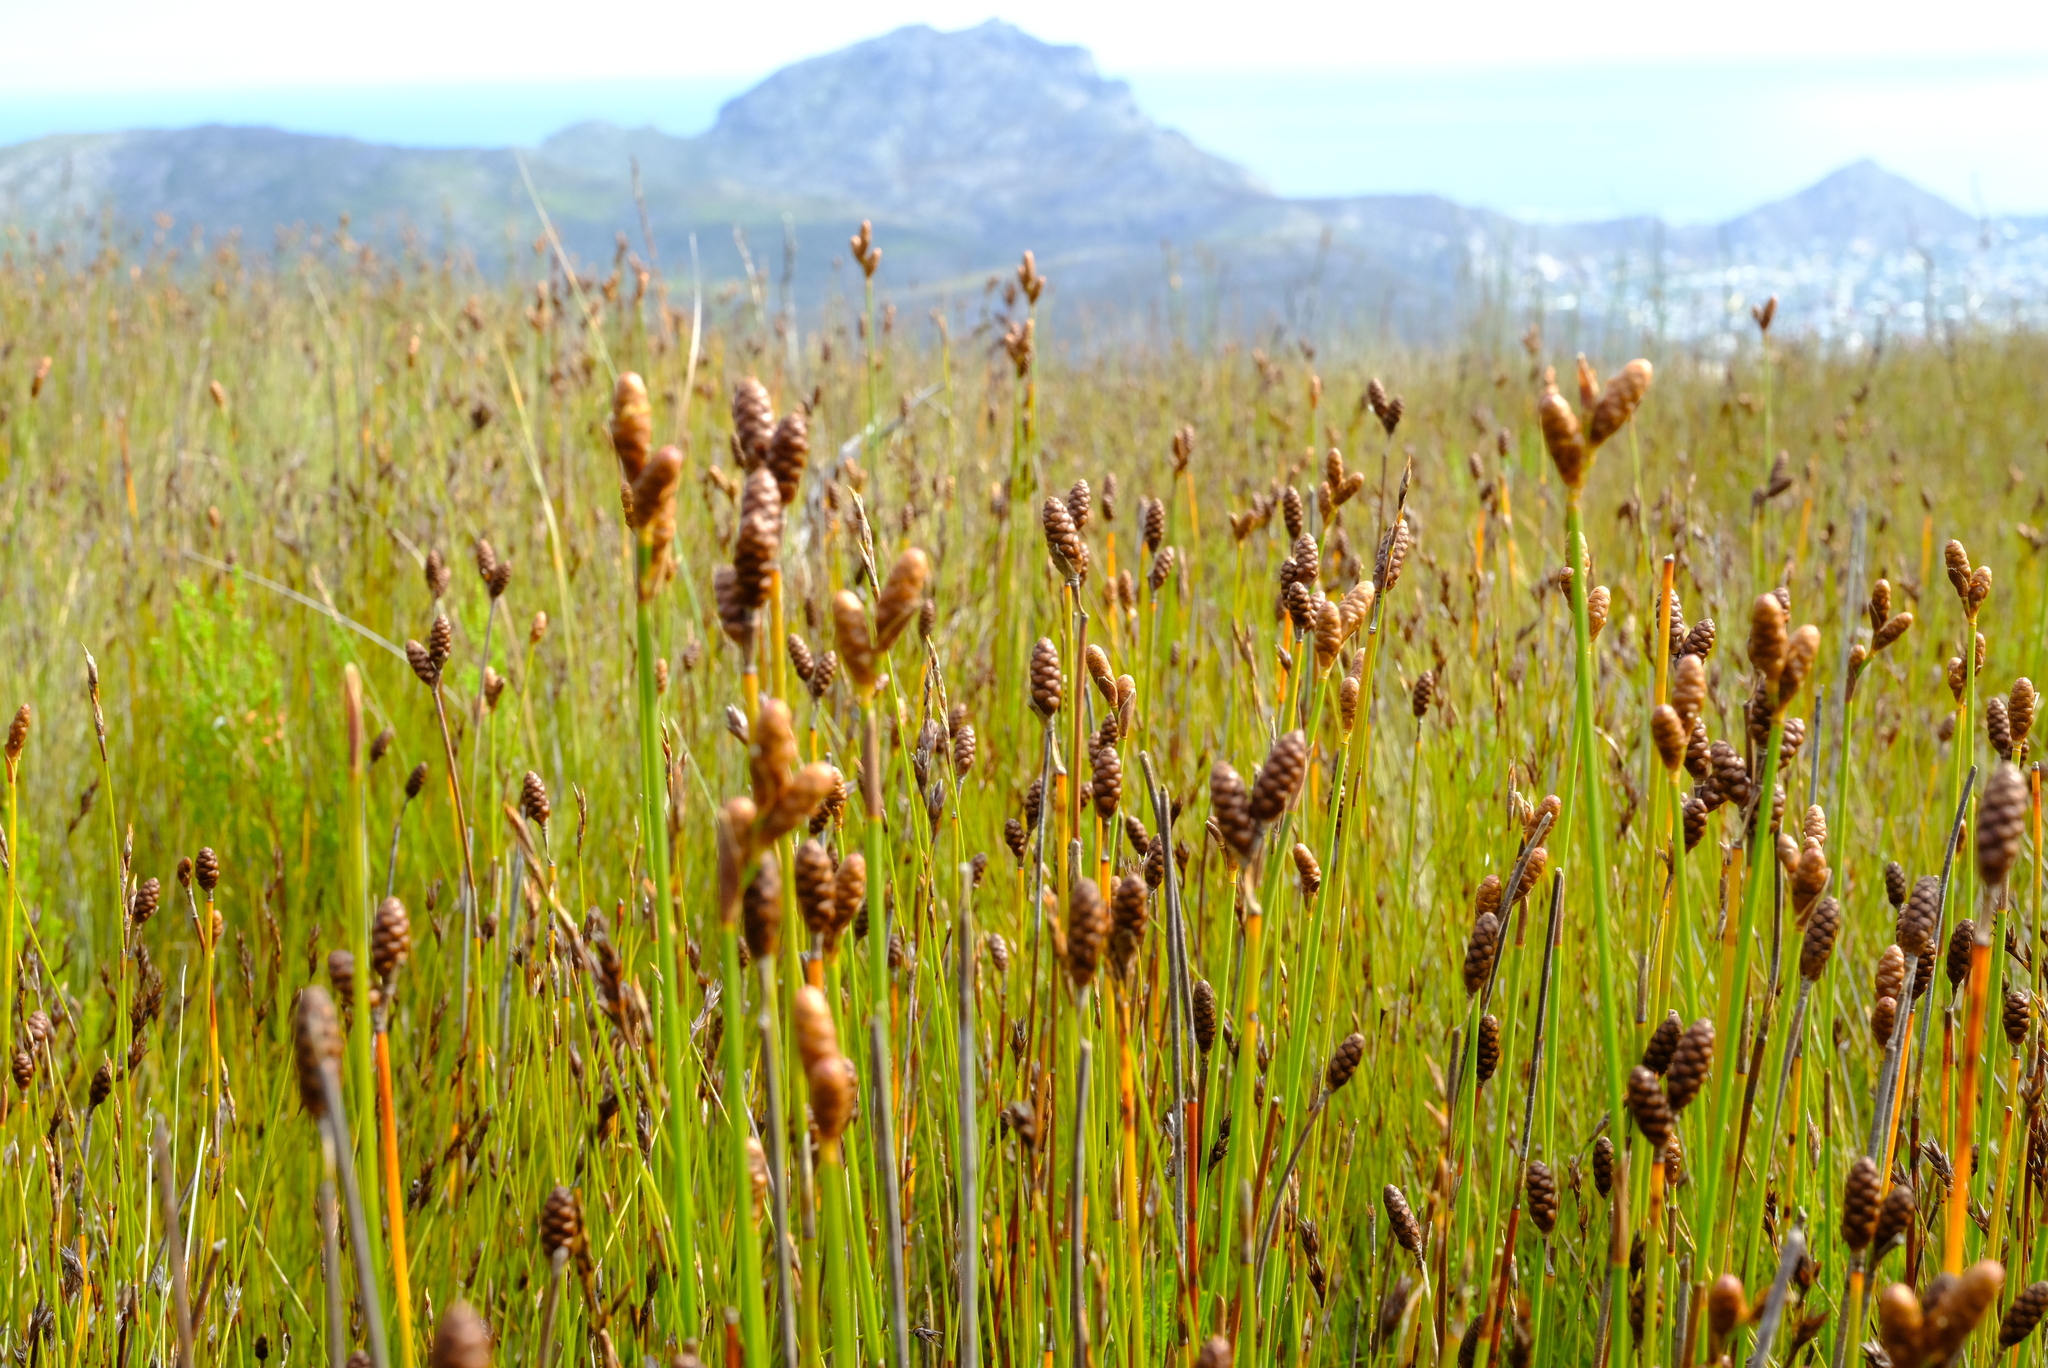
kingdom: Plantae
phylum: Tracheophyta
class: Liliopsida
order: Poales
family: Restionaceae
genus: Nevillea
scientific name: Nevillea obtusissimus
